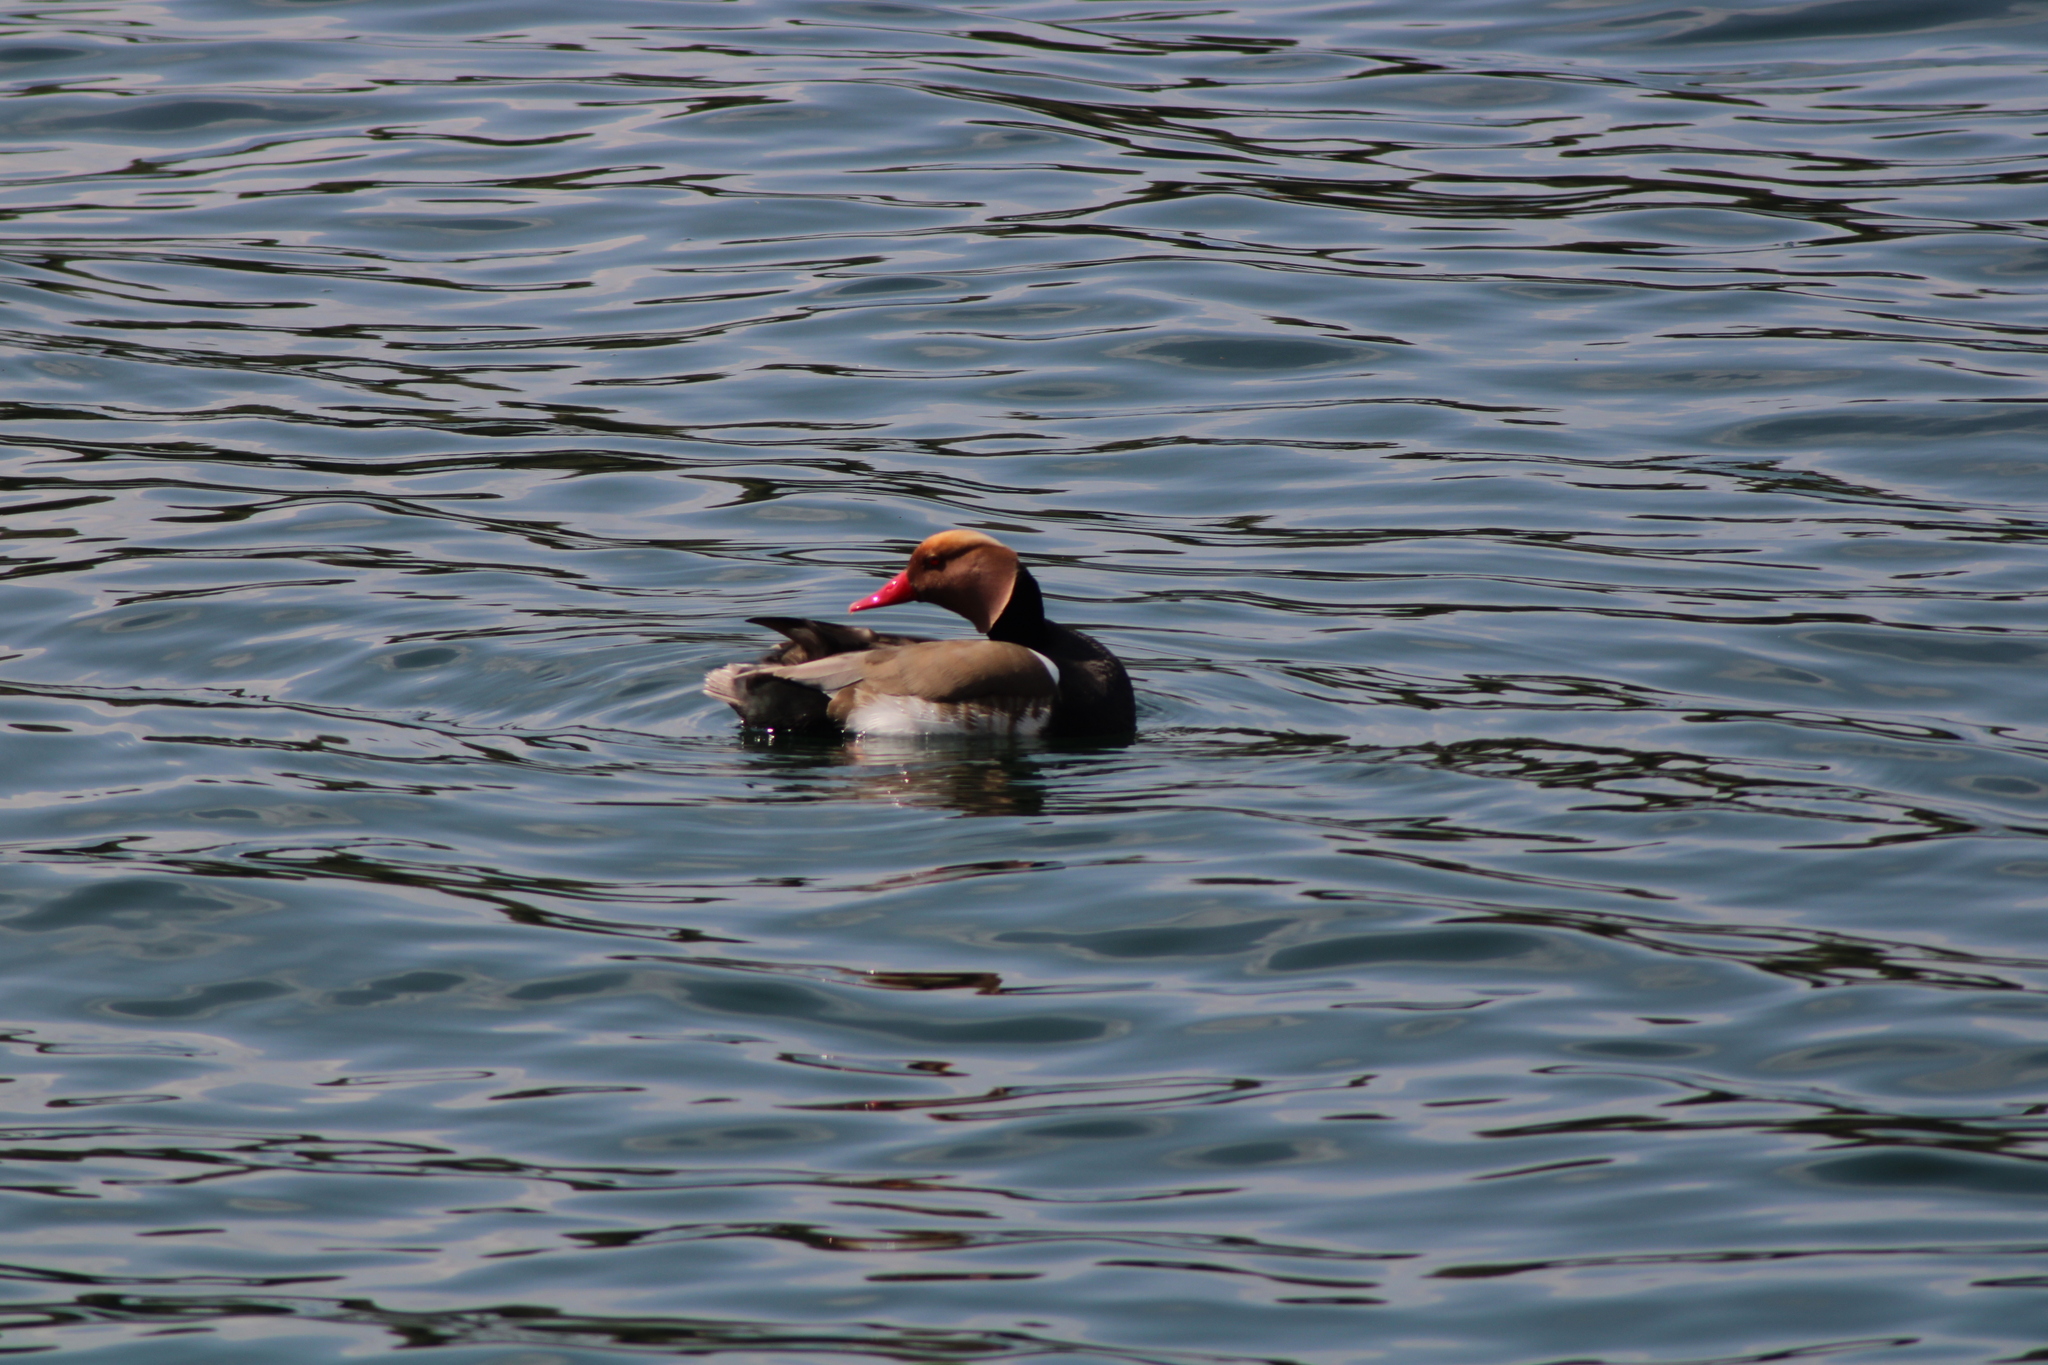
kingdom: Animalia
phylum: Chordata
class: Aves
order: Anseriformes
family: Anatidae
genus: Netta
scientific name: Netta rufina
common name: Red-crested pochard
